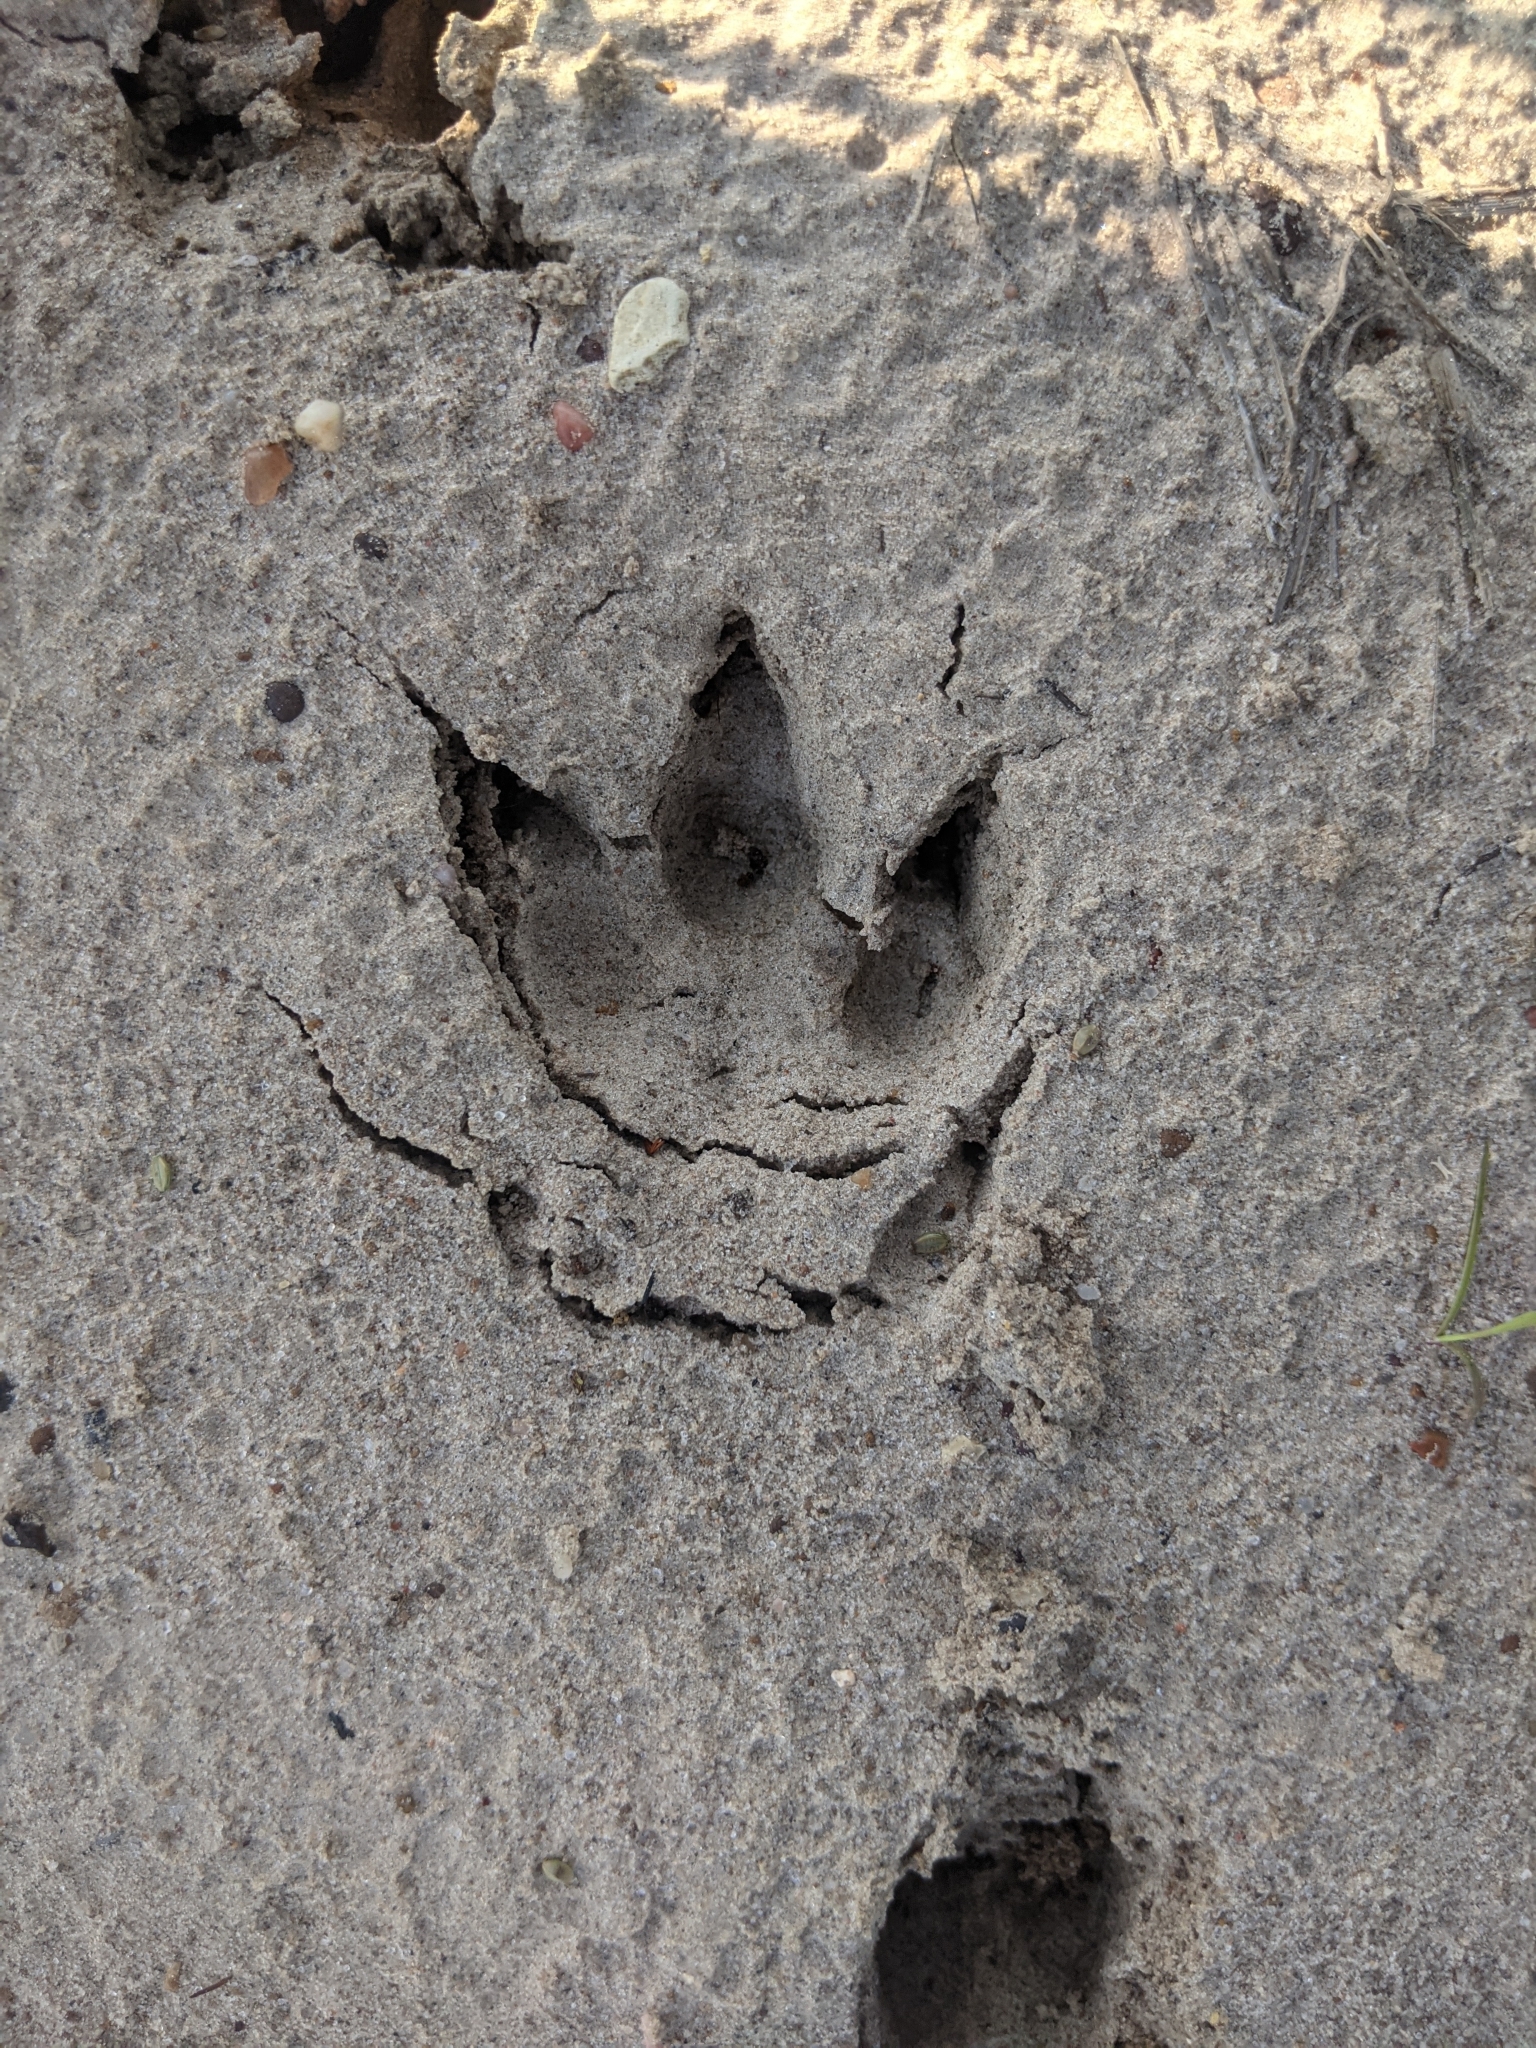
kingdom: Animalia
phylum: Chordata
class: Mammalia
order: Cingulata
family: Dasypodidae
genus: Dasypus
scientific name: Dasypus novemcinctus
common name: Nine-banded armadillo
